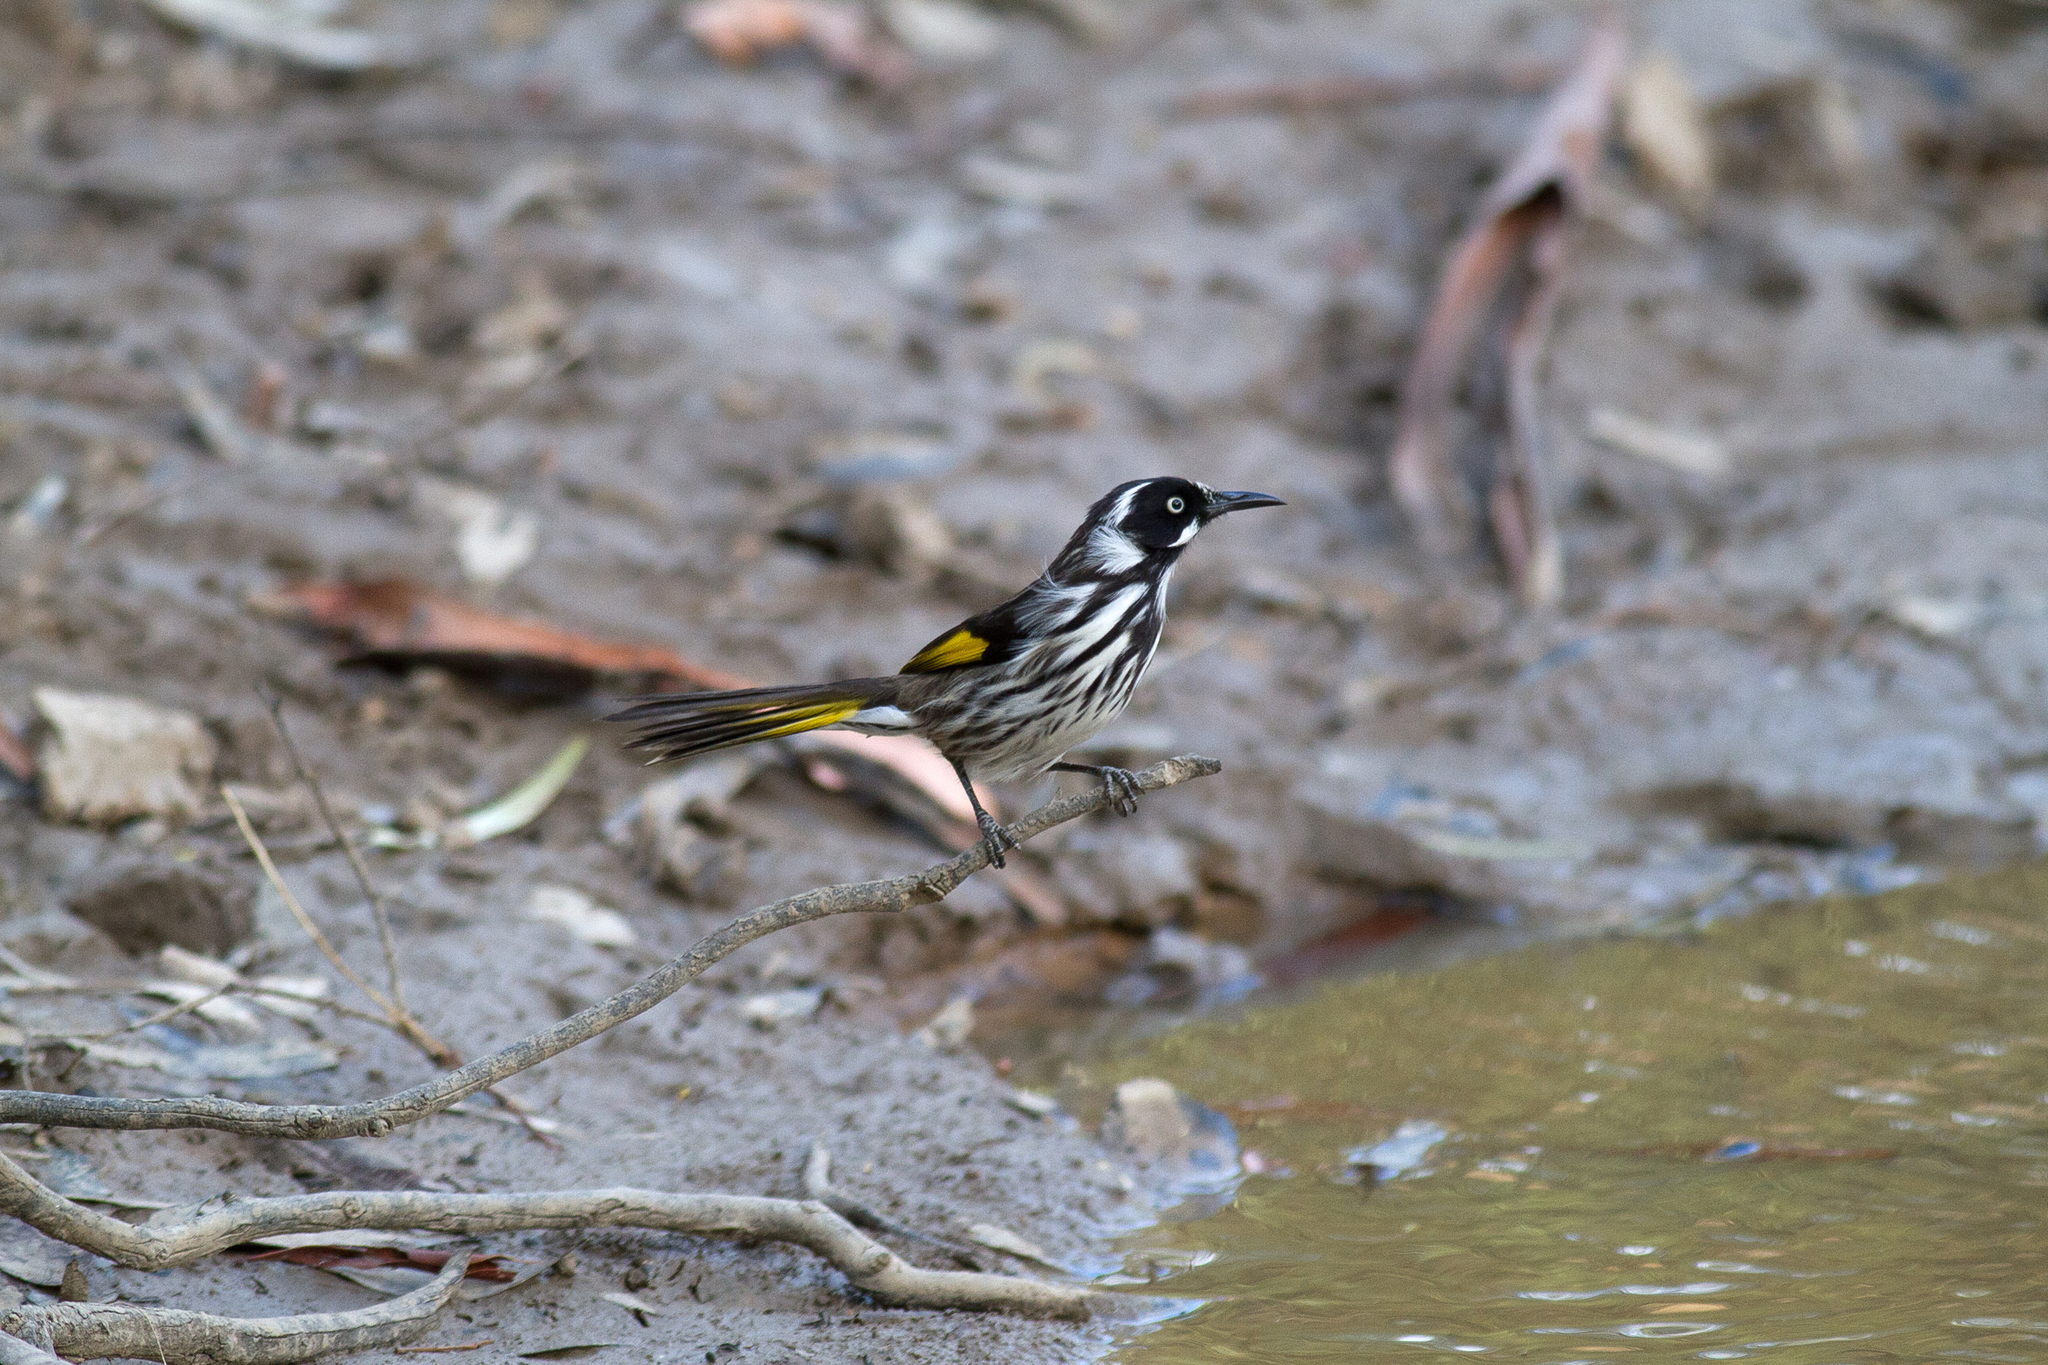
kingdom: Animalia
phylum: Chordata
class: Aves
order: Passeriformes
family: Meliphagidae
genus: Phylidonyris
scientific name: Phylidonyris novaehollandiae
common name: New holland honeyeater
